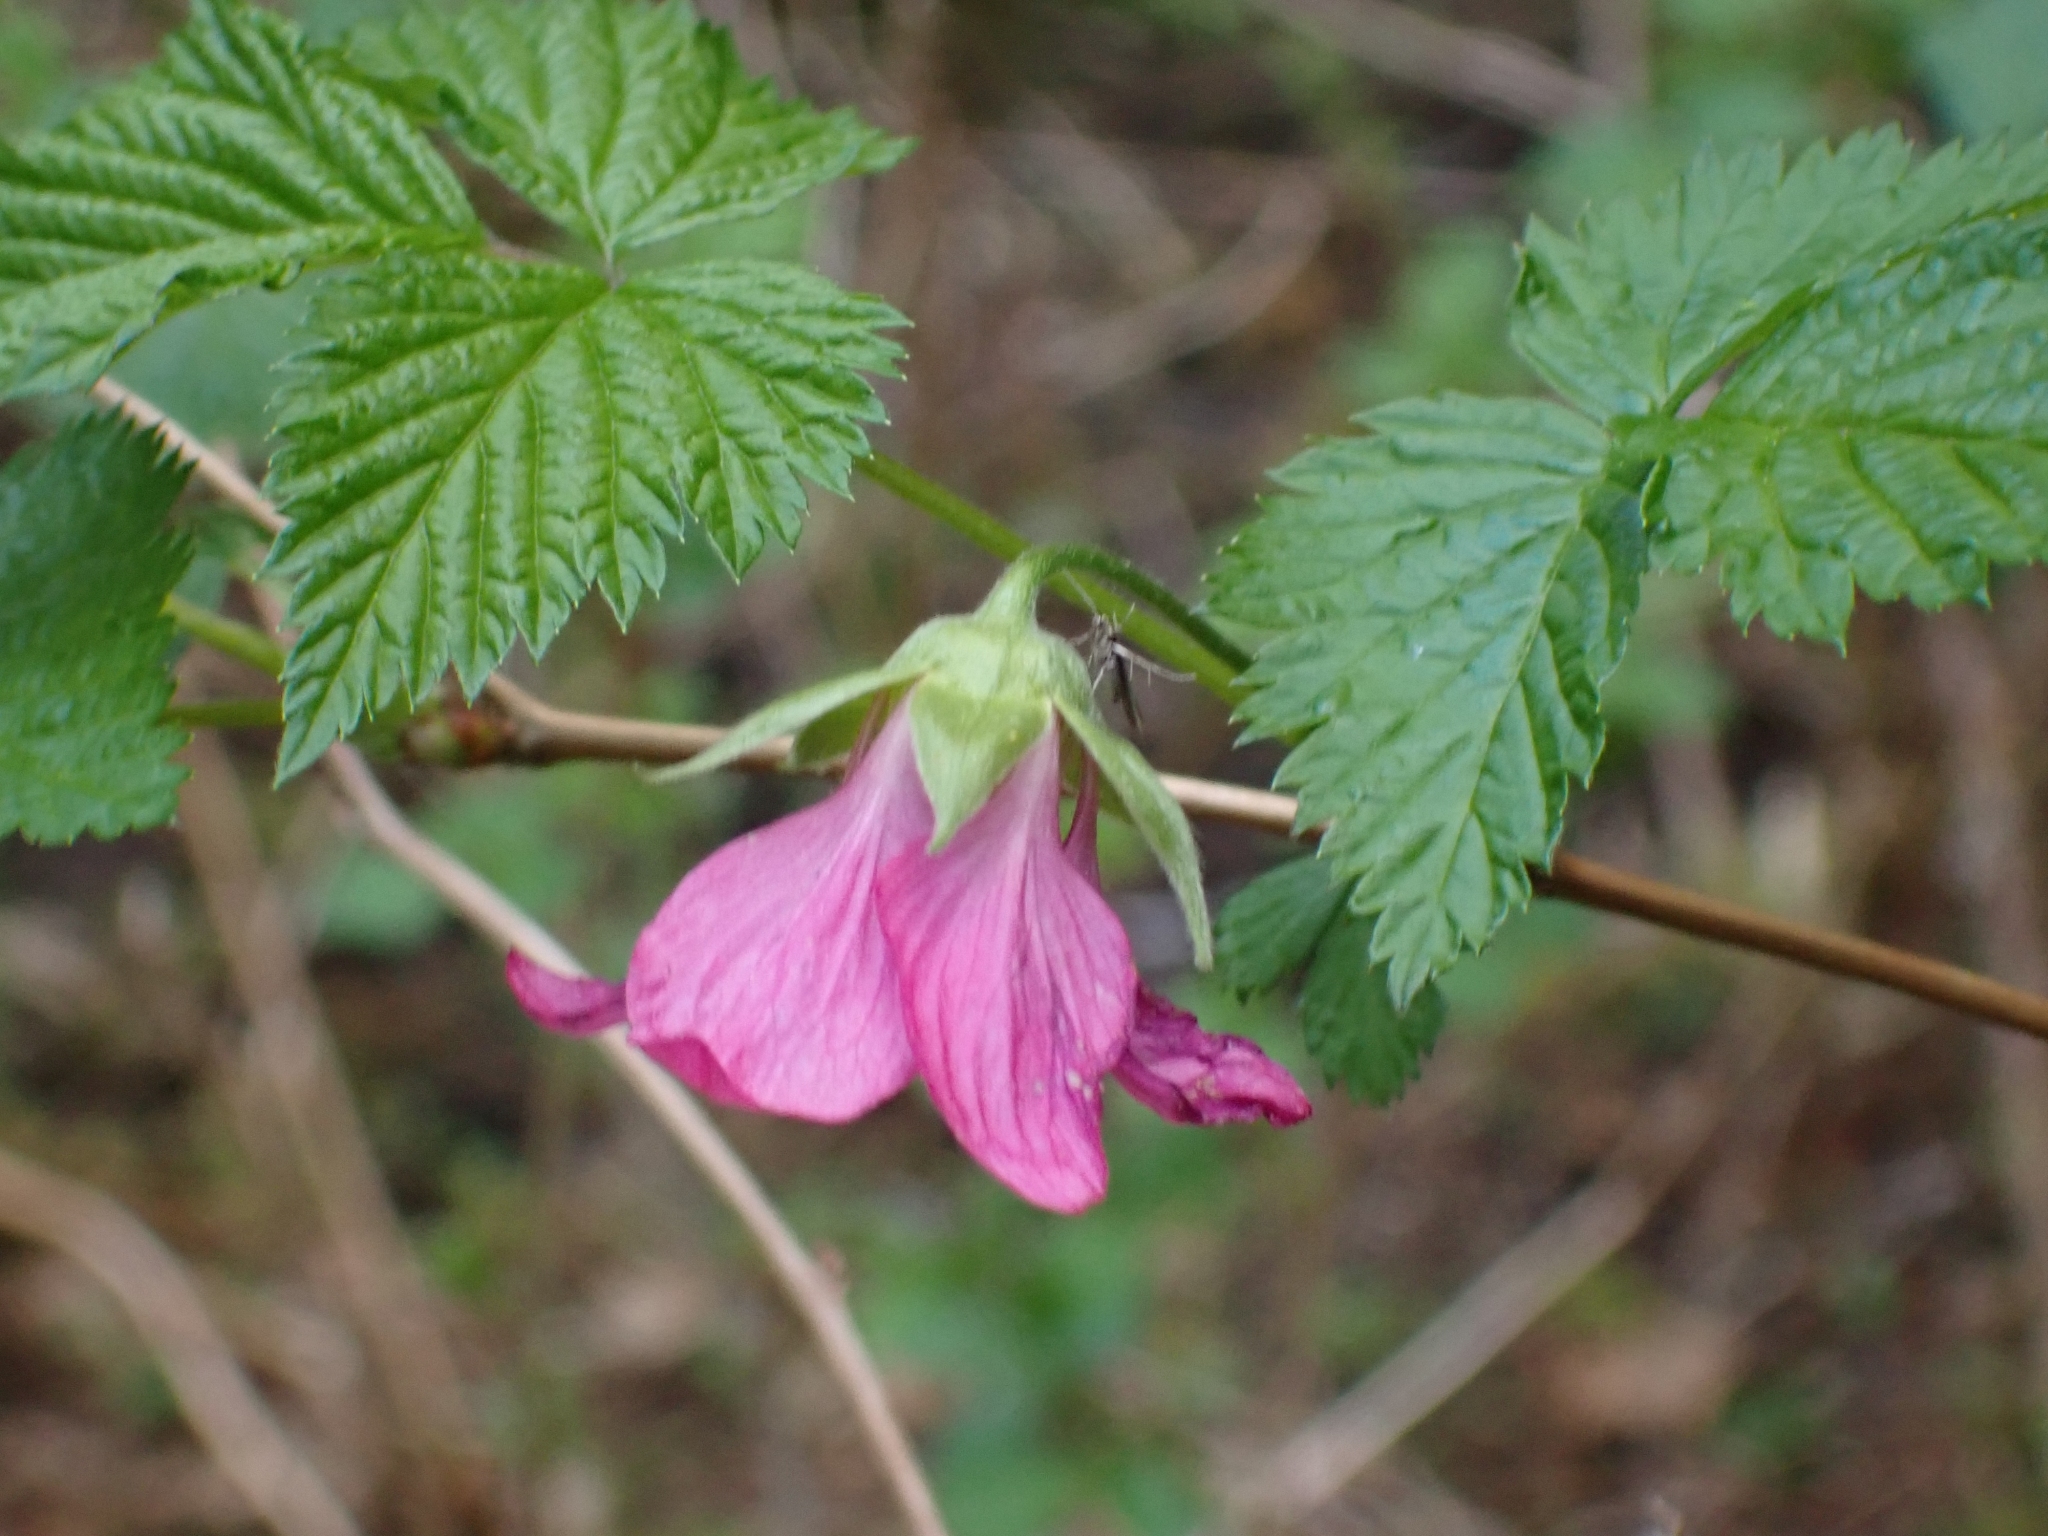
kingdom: Plantae
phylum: Tracheophyta
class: Magnoliopsida
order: Rosales
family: Rosaceae
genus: Rubus
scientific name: Rubus spectabilis
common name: Salmonberry
